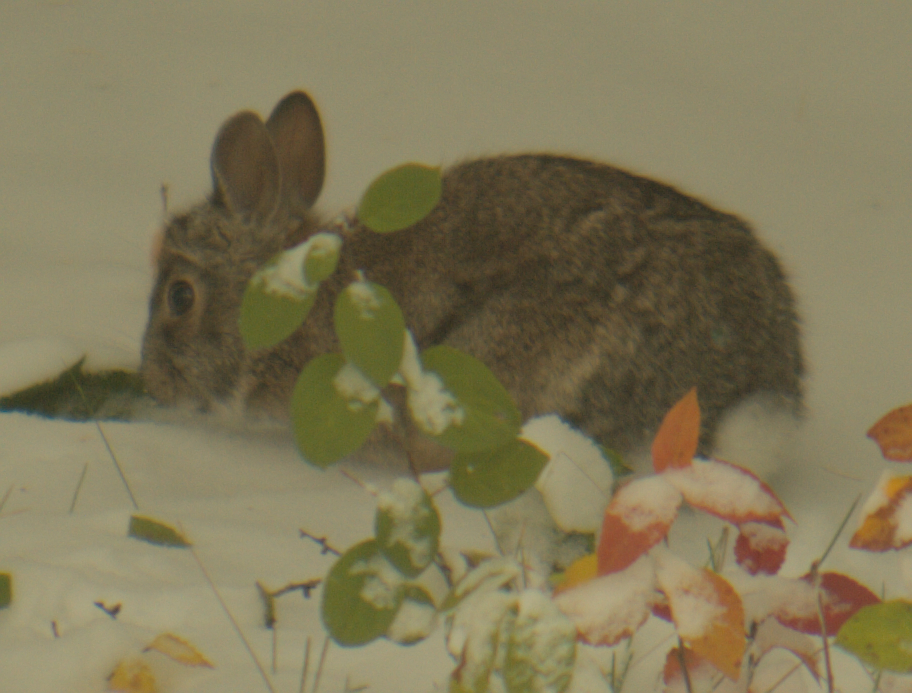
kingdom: Animalia
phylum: Chordata
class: Mammalia
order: Lagomorpha
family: Leporidae
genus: Sylvilagus
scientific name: Sylvilagus floridanus
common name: Eastern cottontail
